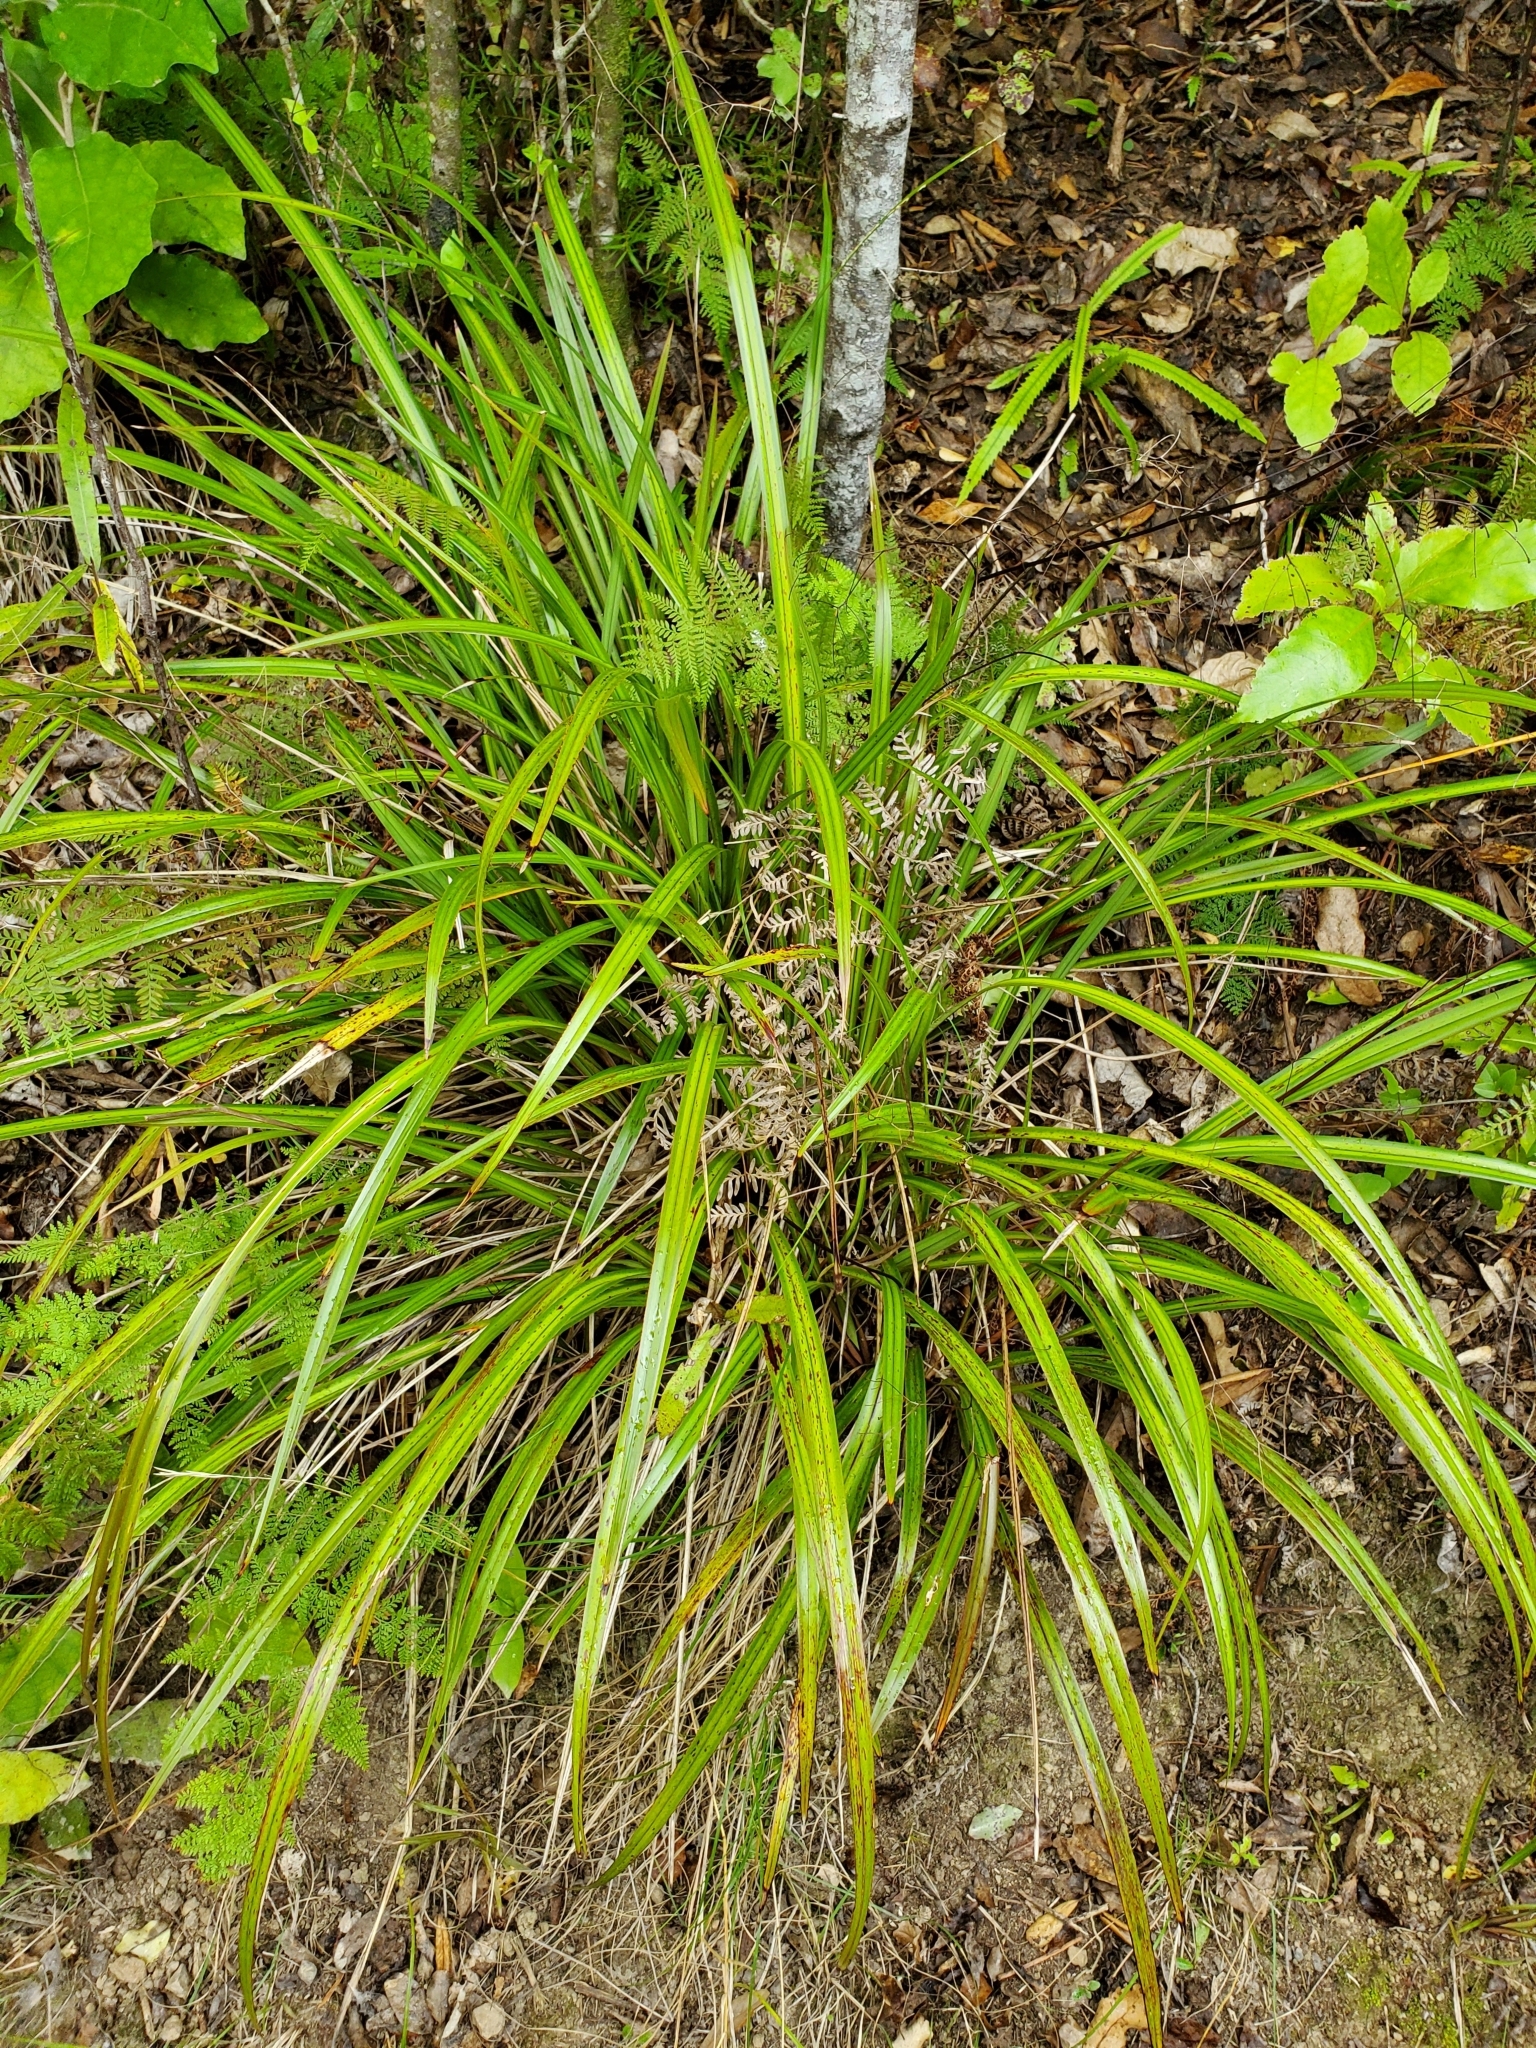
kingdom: Plantae
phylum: Tracheophyta
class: Liliopsida
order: Asparagales
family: Asphodelaceae
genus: Dianella
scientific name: Dianella nigra
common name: New zealand-blueberry
